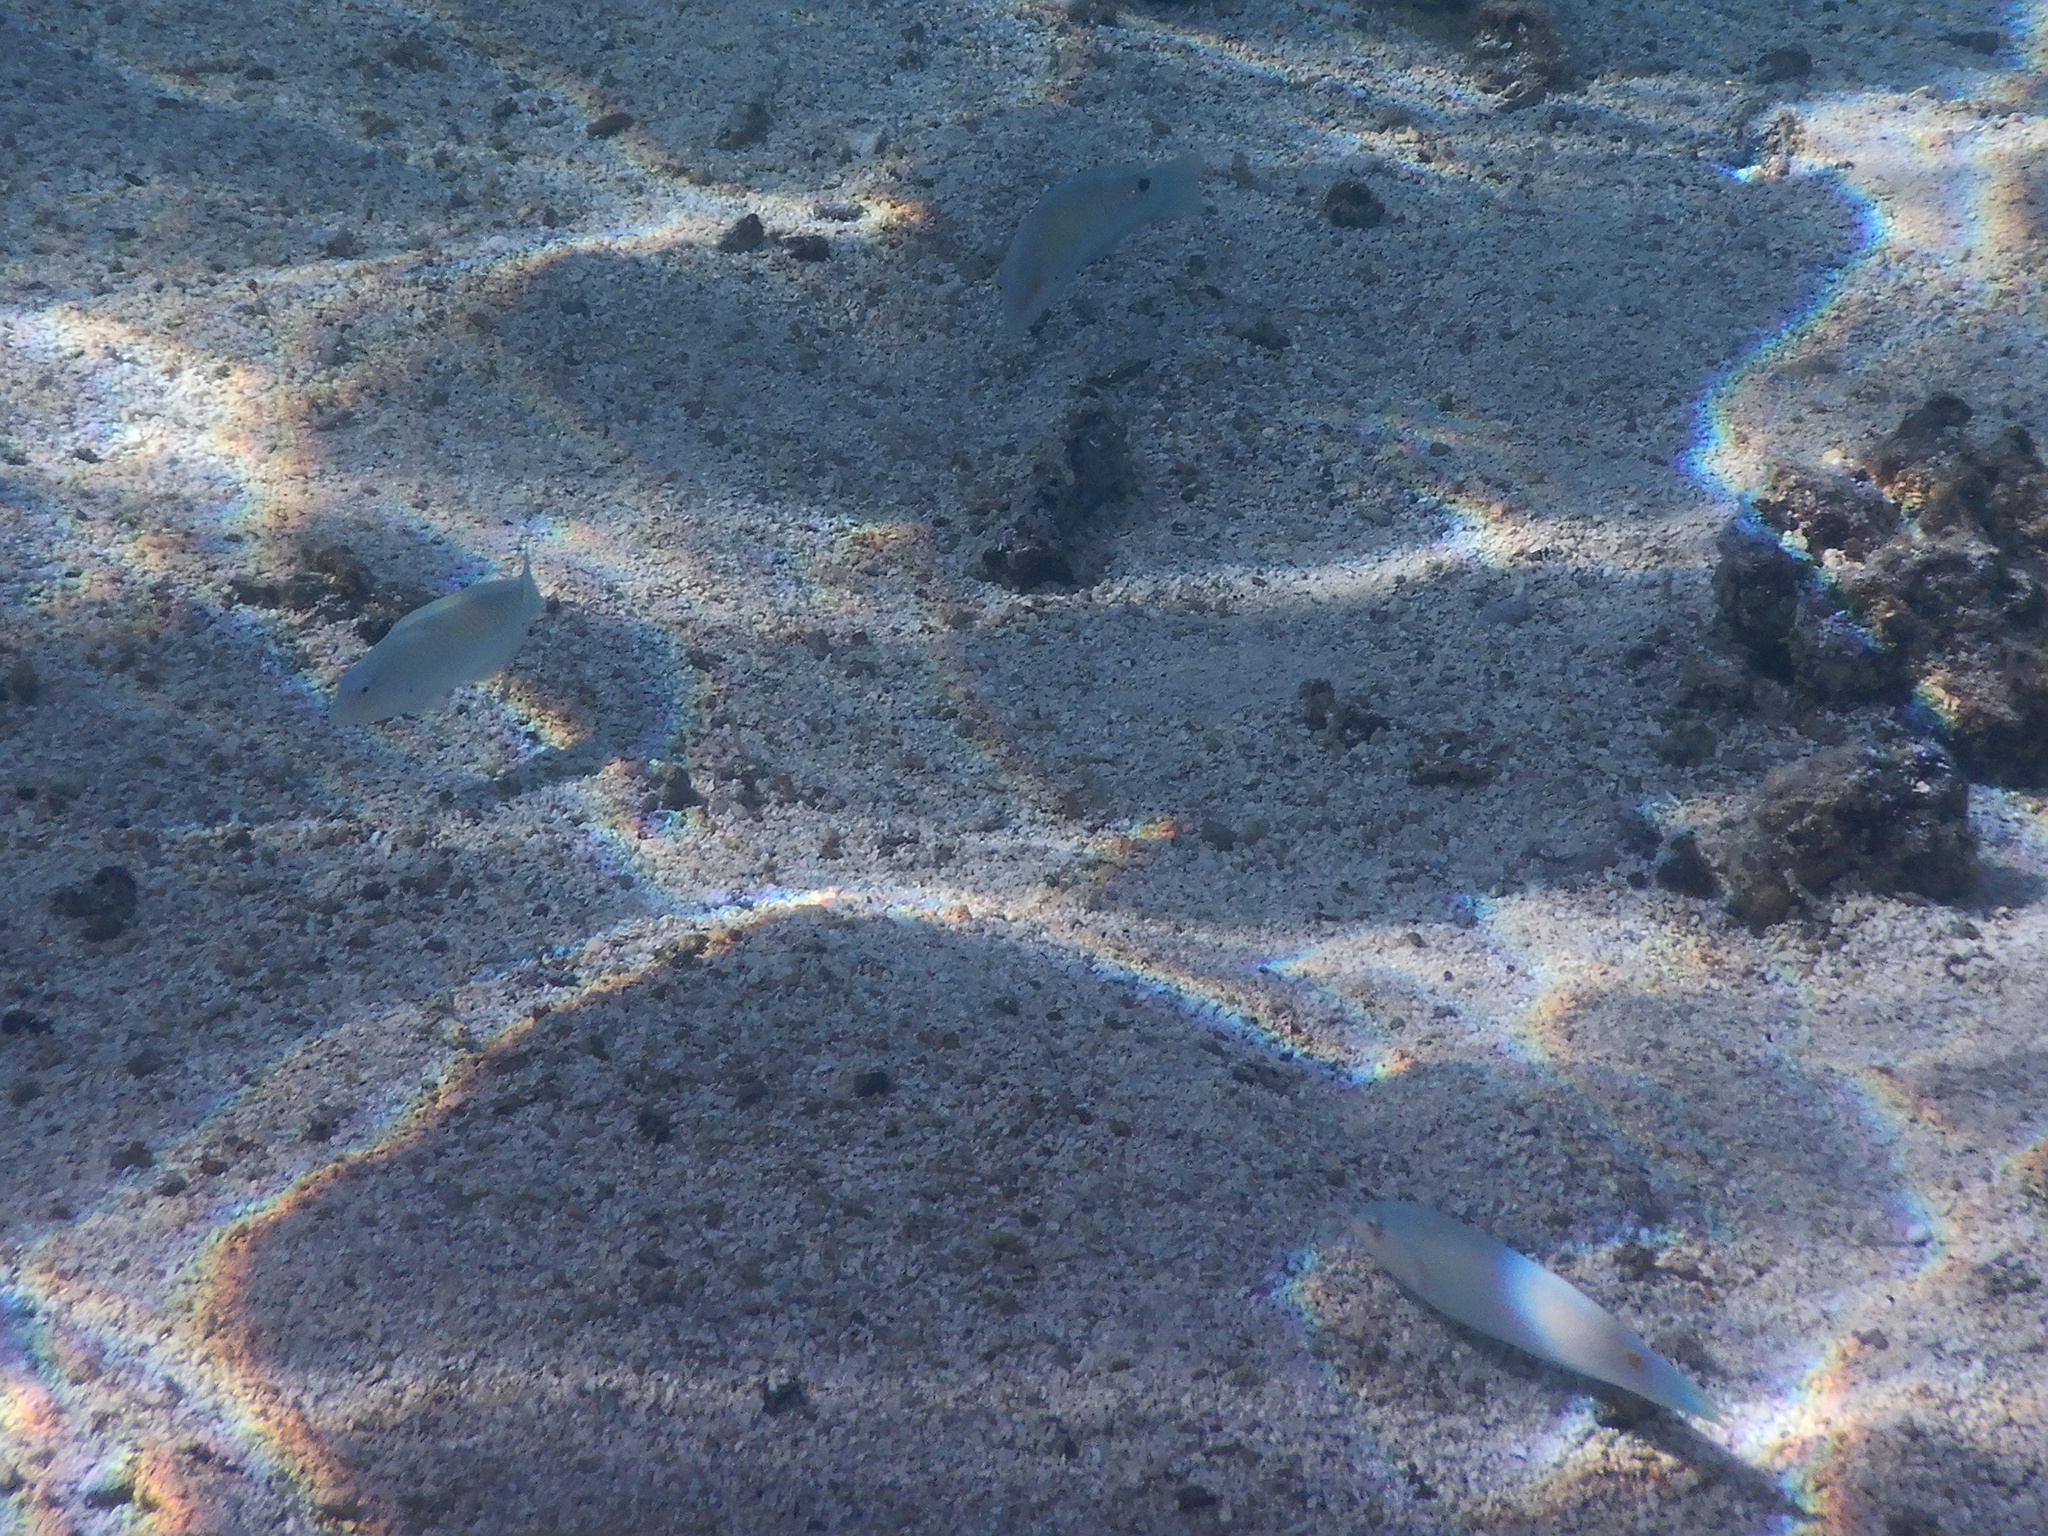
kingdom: Animalia
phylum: Chordata
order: Perciformes
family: Labridae
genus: Halichoeres
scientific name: Halichoeres trimaculatus
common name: Three-spot wrasse
